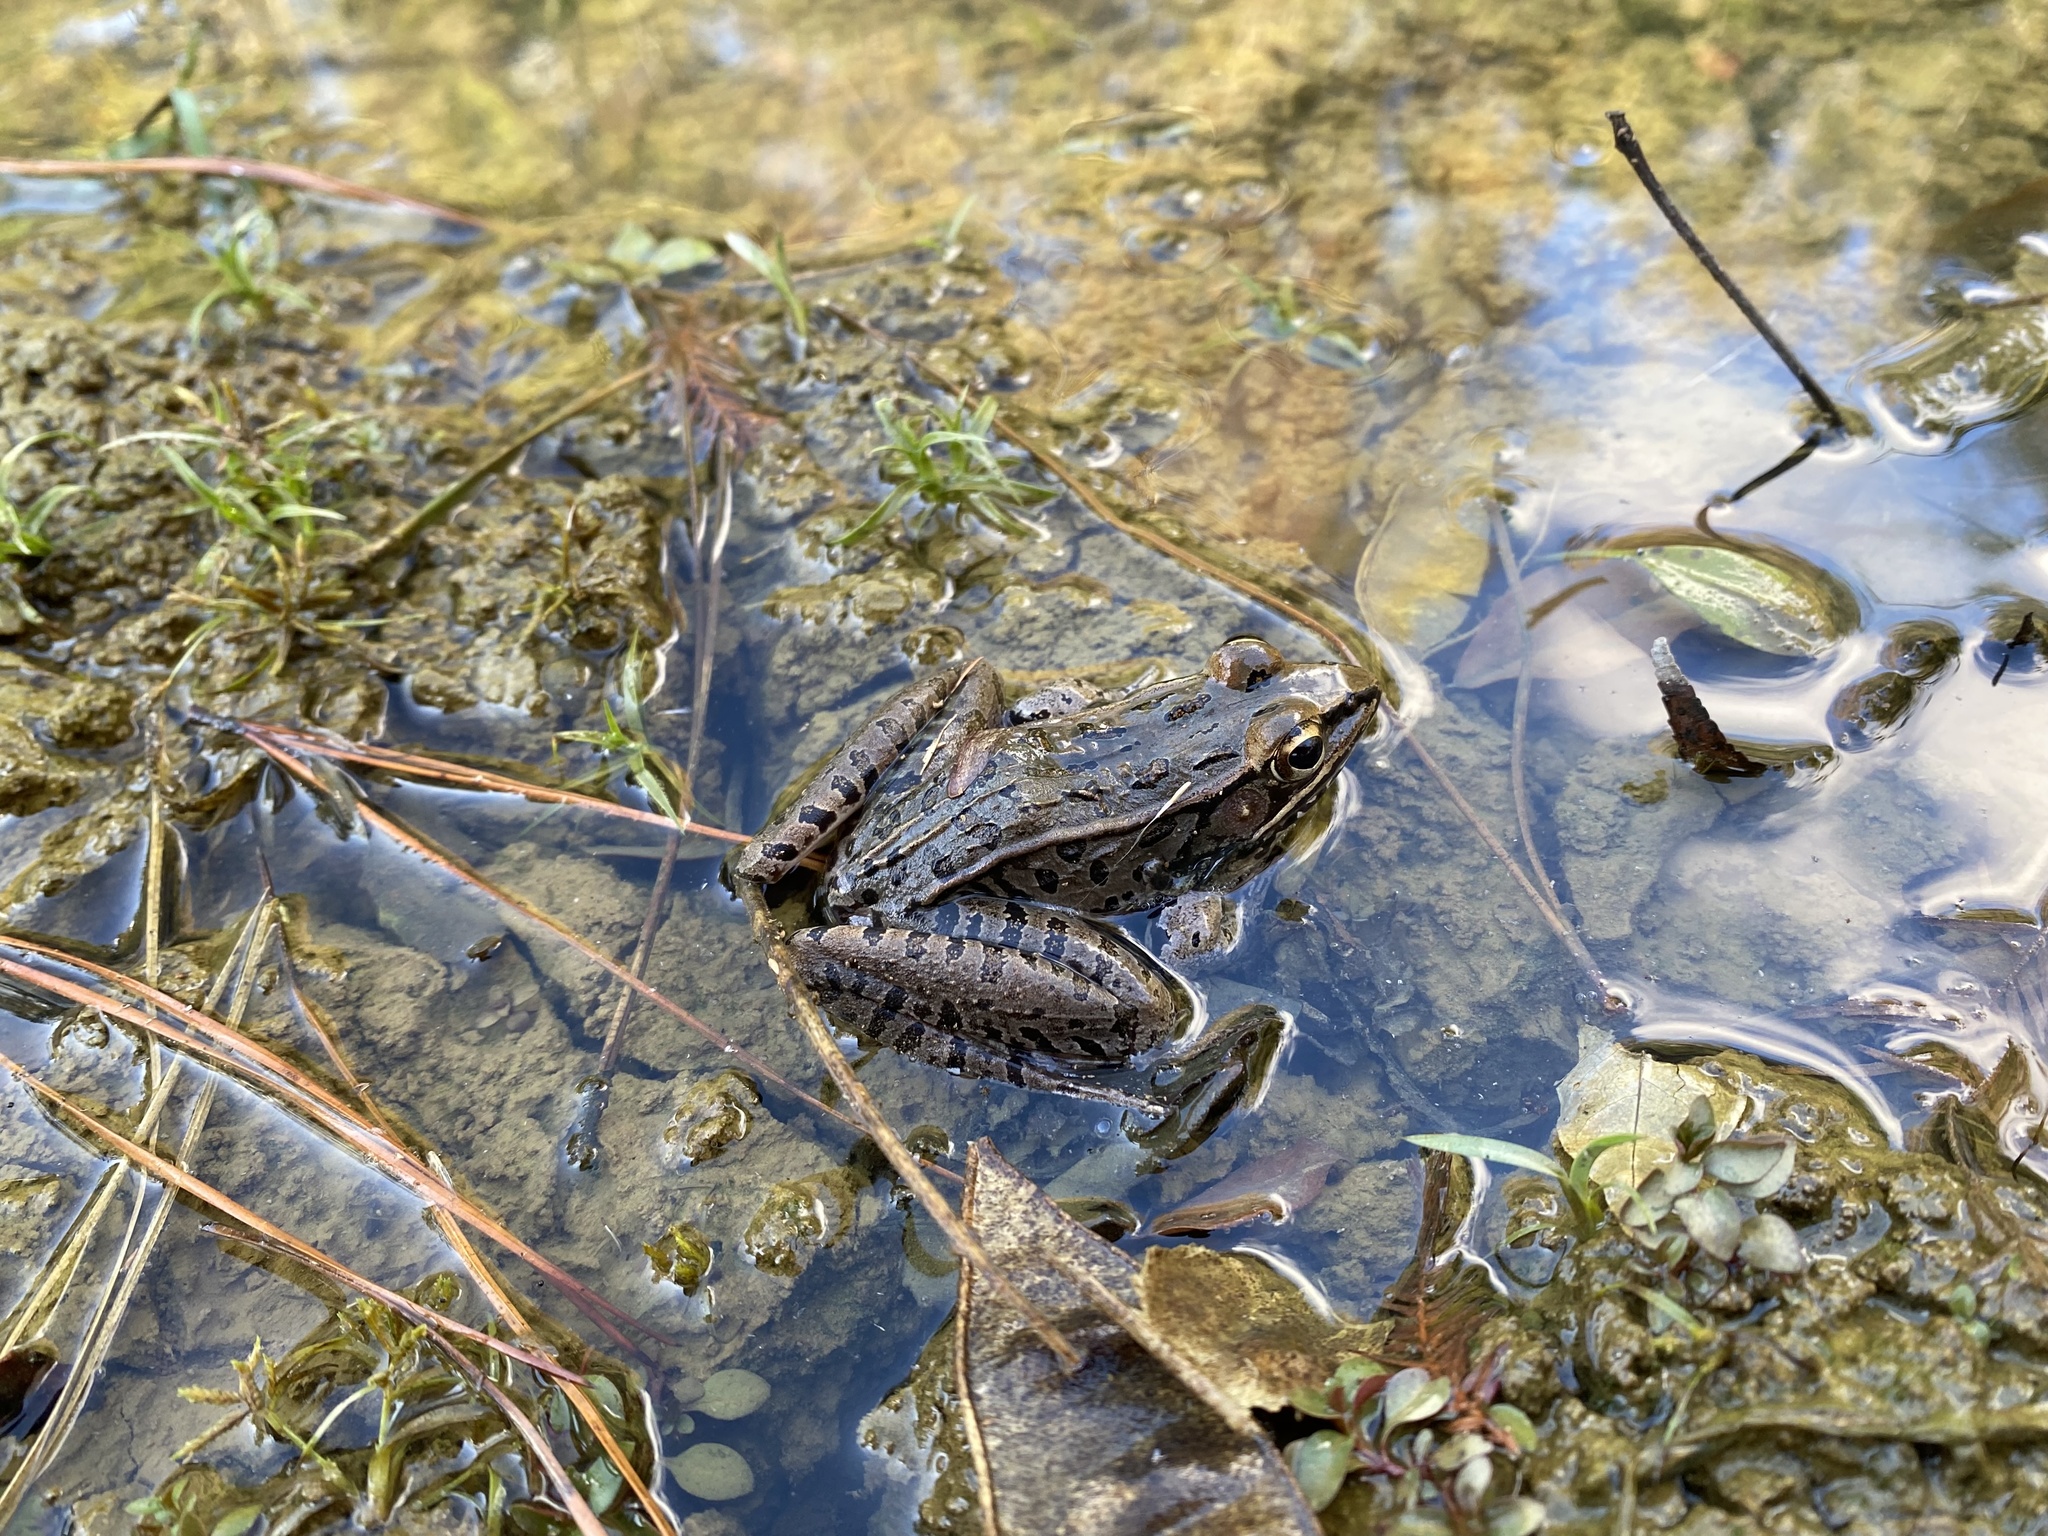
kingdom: Animalia
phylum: Chordata
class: Amphibia
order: Anura
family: Ranidae
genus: Lithobates
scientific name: Lithobates sphenocephalus
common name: Southern leopard frog
